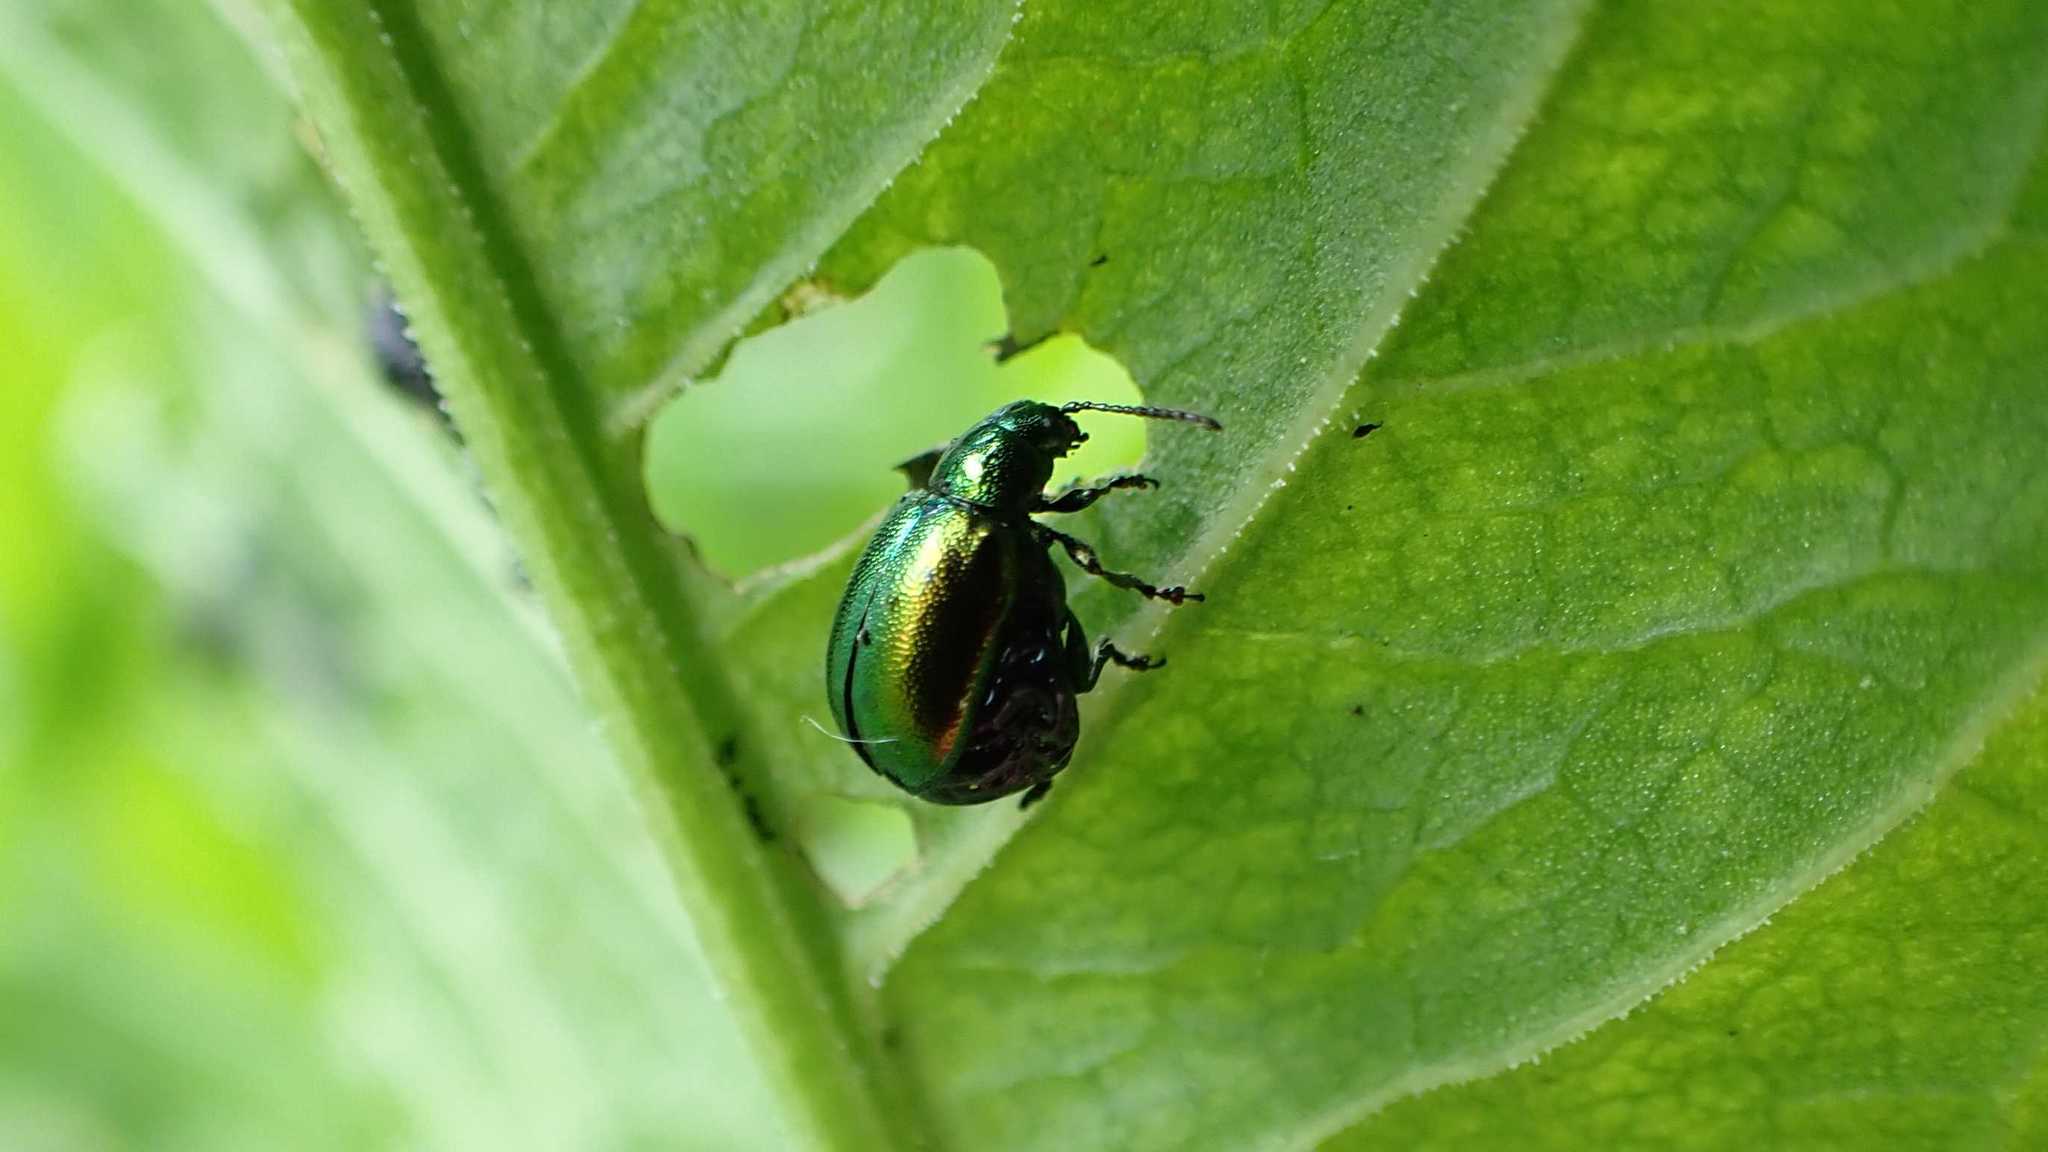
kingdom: Animalia
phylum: Arthropoda
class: Insecta
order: Coleoptera
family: Chrysomelidae
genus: Gastrophysa
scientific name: Gastrophysa viridula
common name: Green dock beetle
